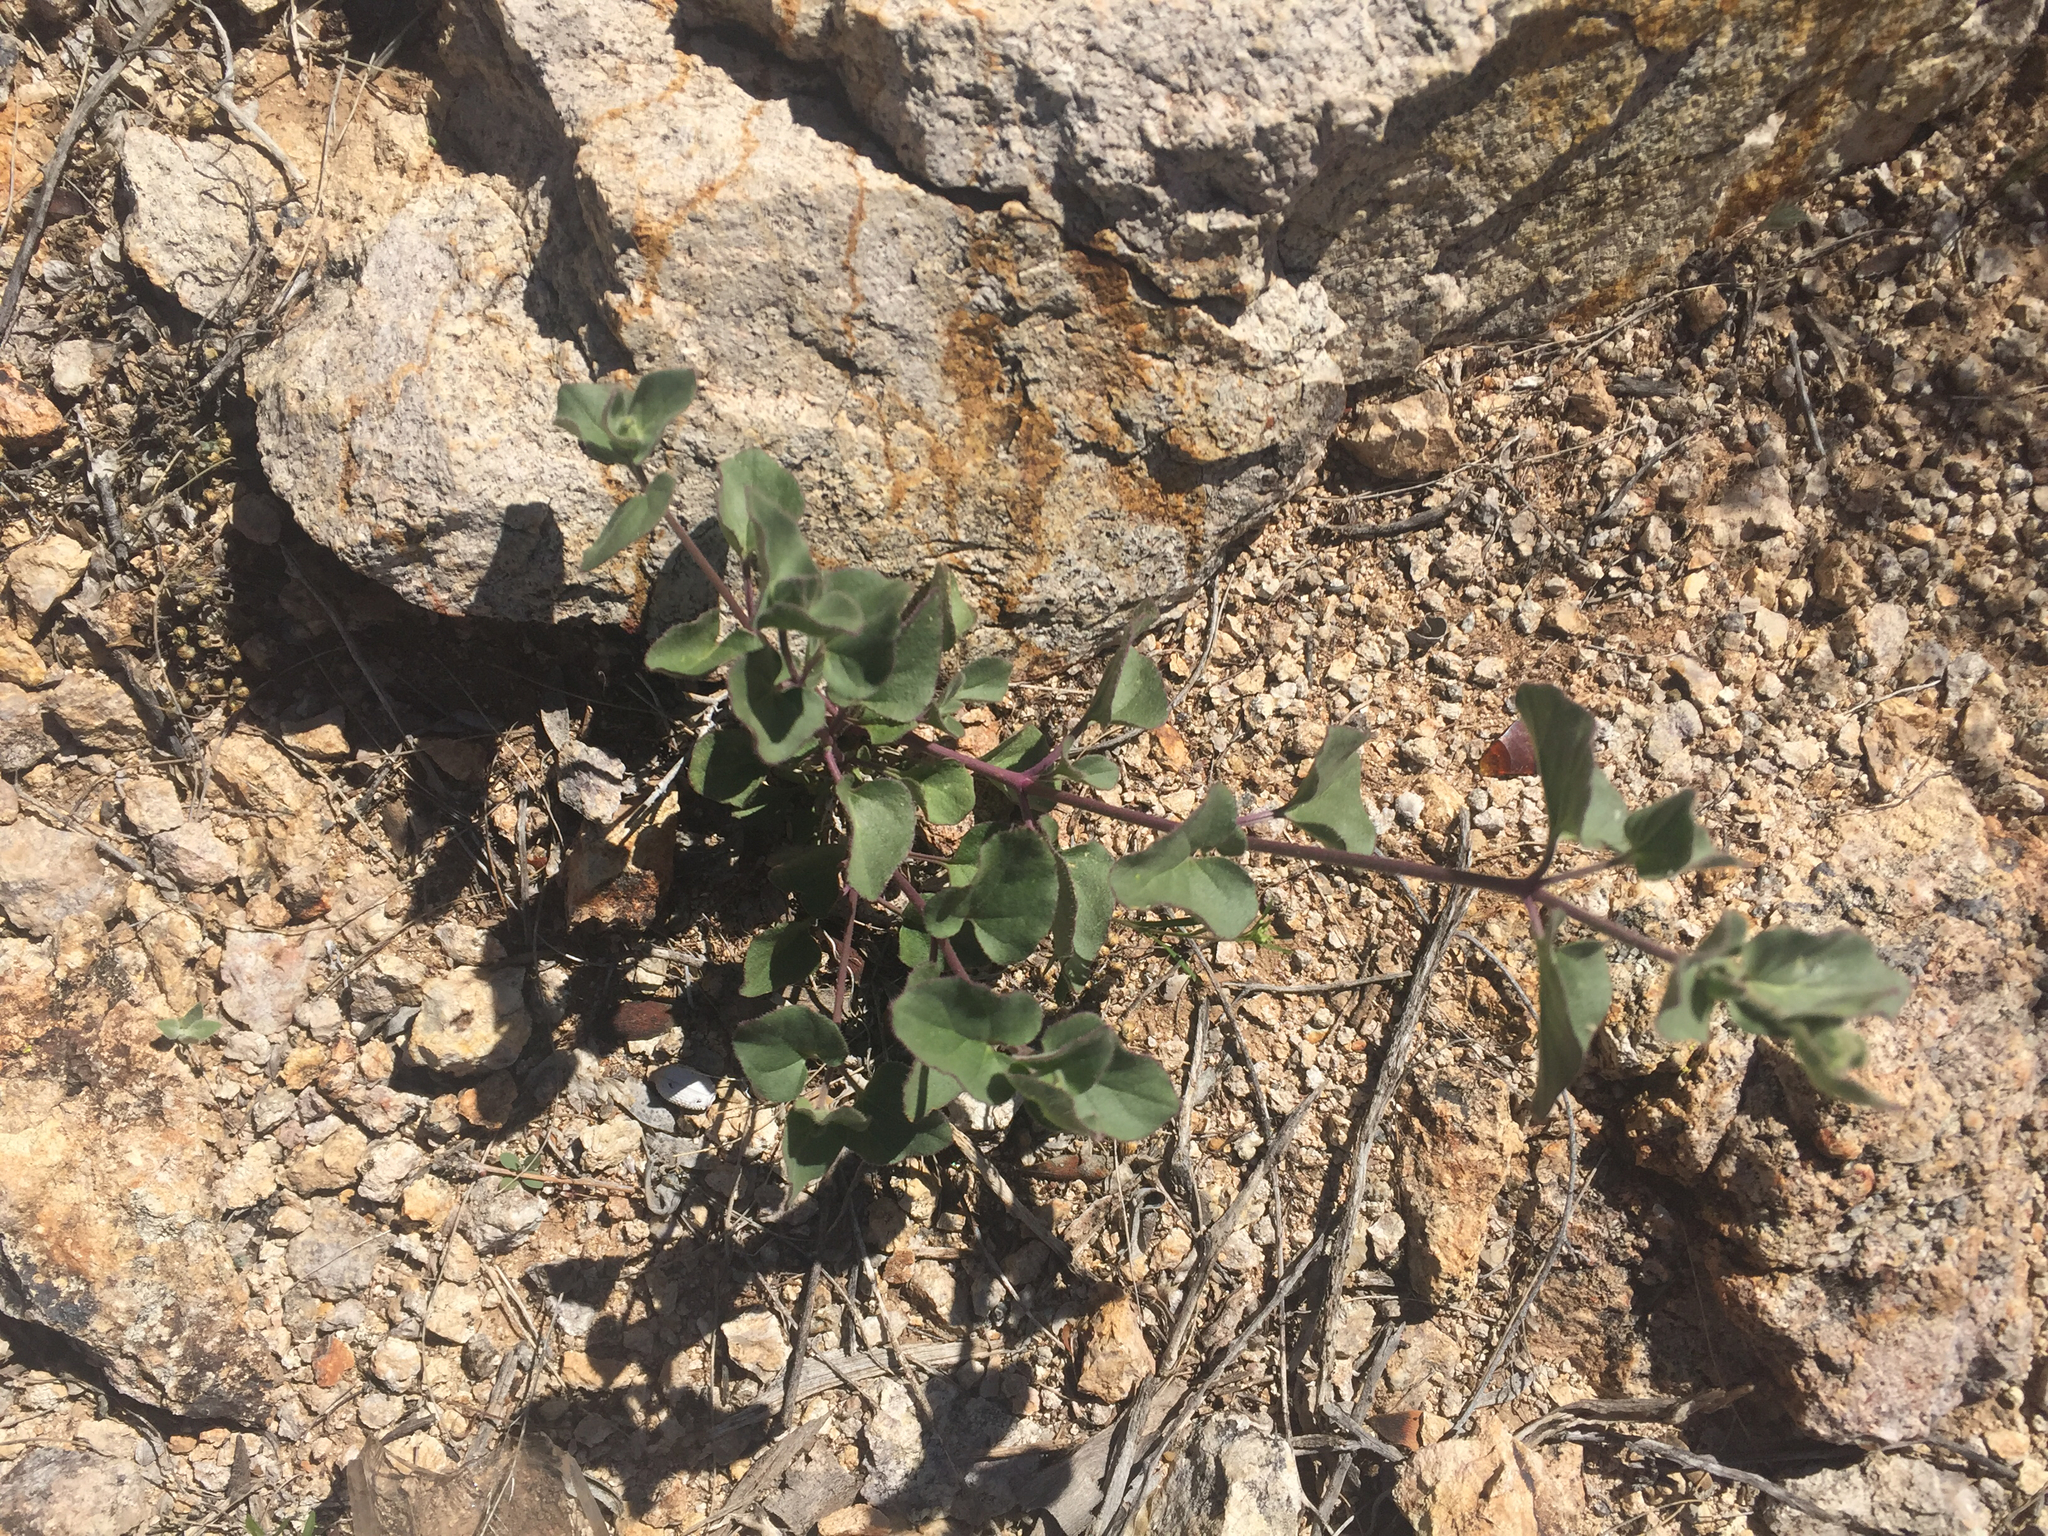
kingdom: Plantae
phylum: Tracheophyta
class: Magnoliopsida
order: Caryophyllales
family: Nyctaginaceae
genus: Mirabilis
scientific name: Mirabilis laevis
